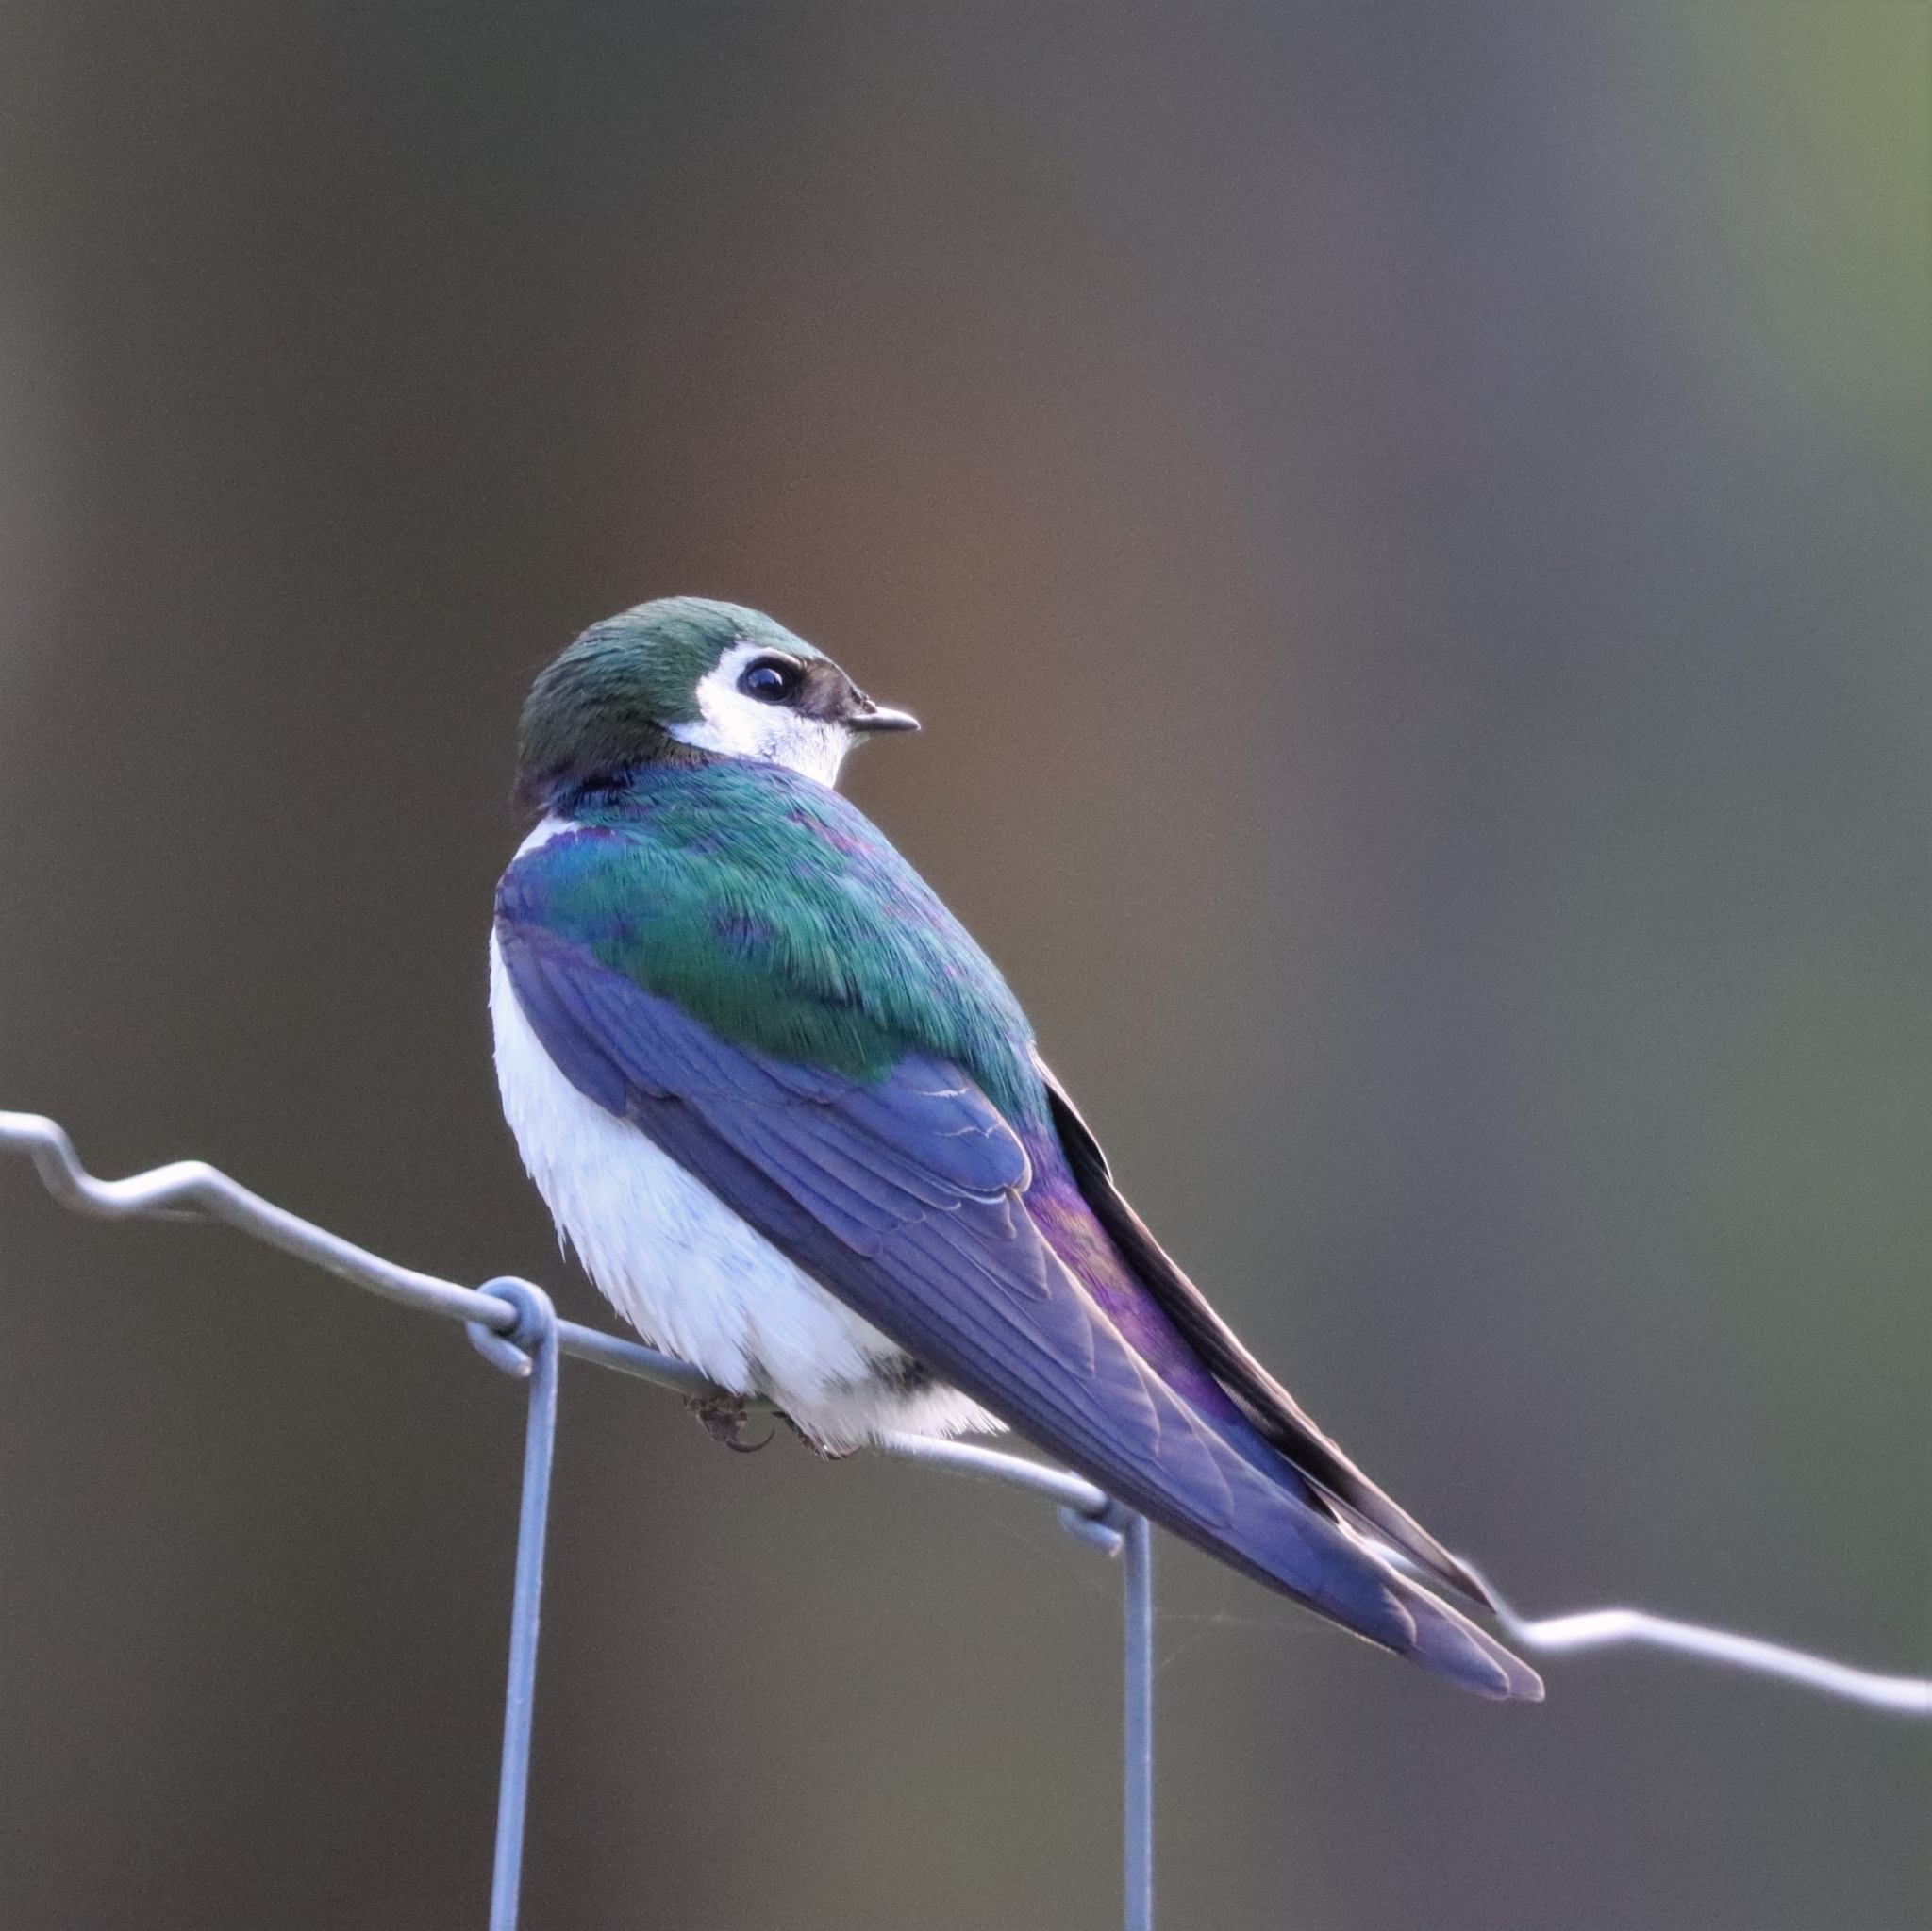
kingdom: Animalia
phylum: Chordata
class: Aves
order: Passeriformes
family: Hirundinidae
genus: Tachycineta
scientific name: Tachycineta thalassina
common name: Violet-green swallow
